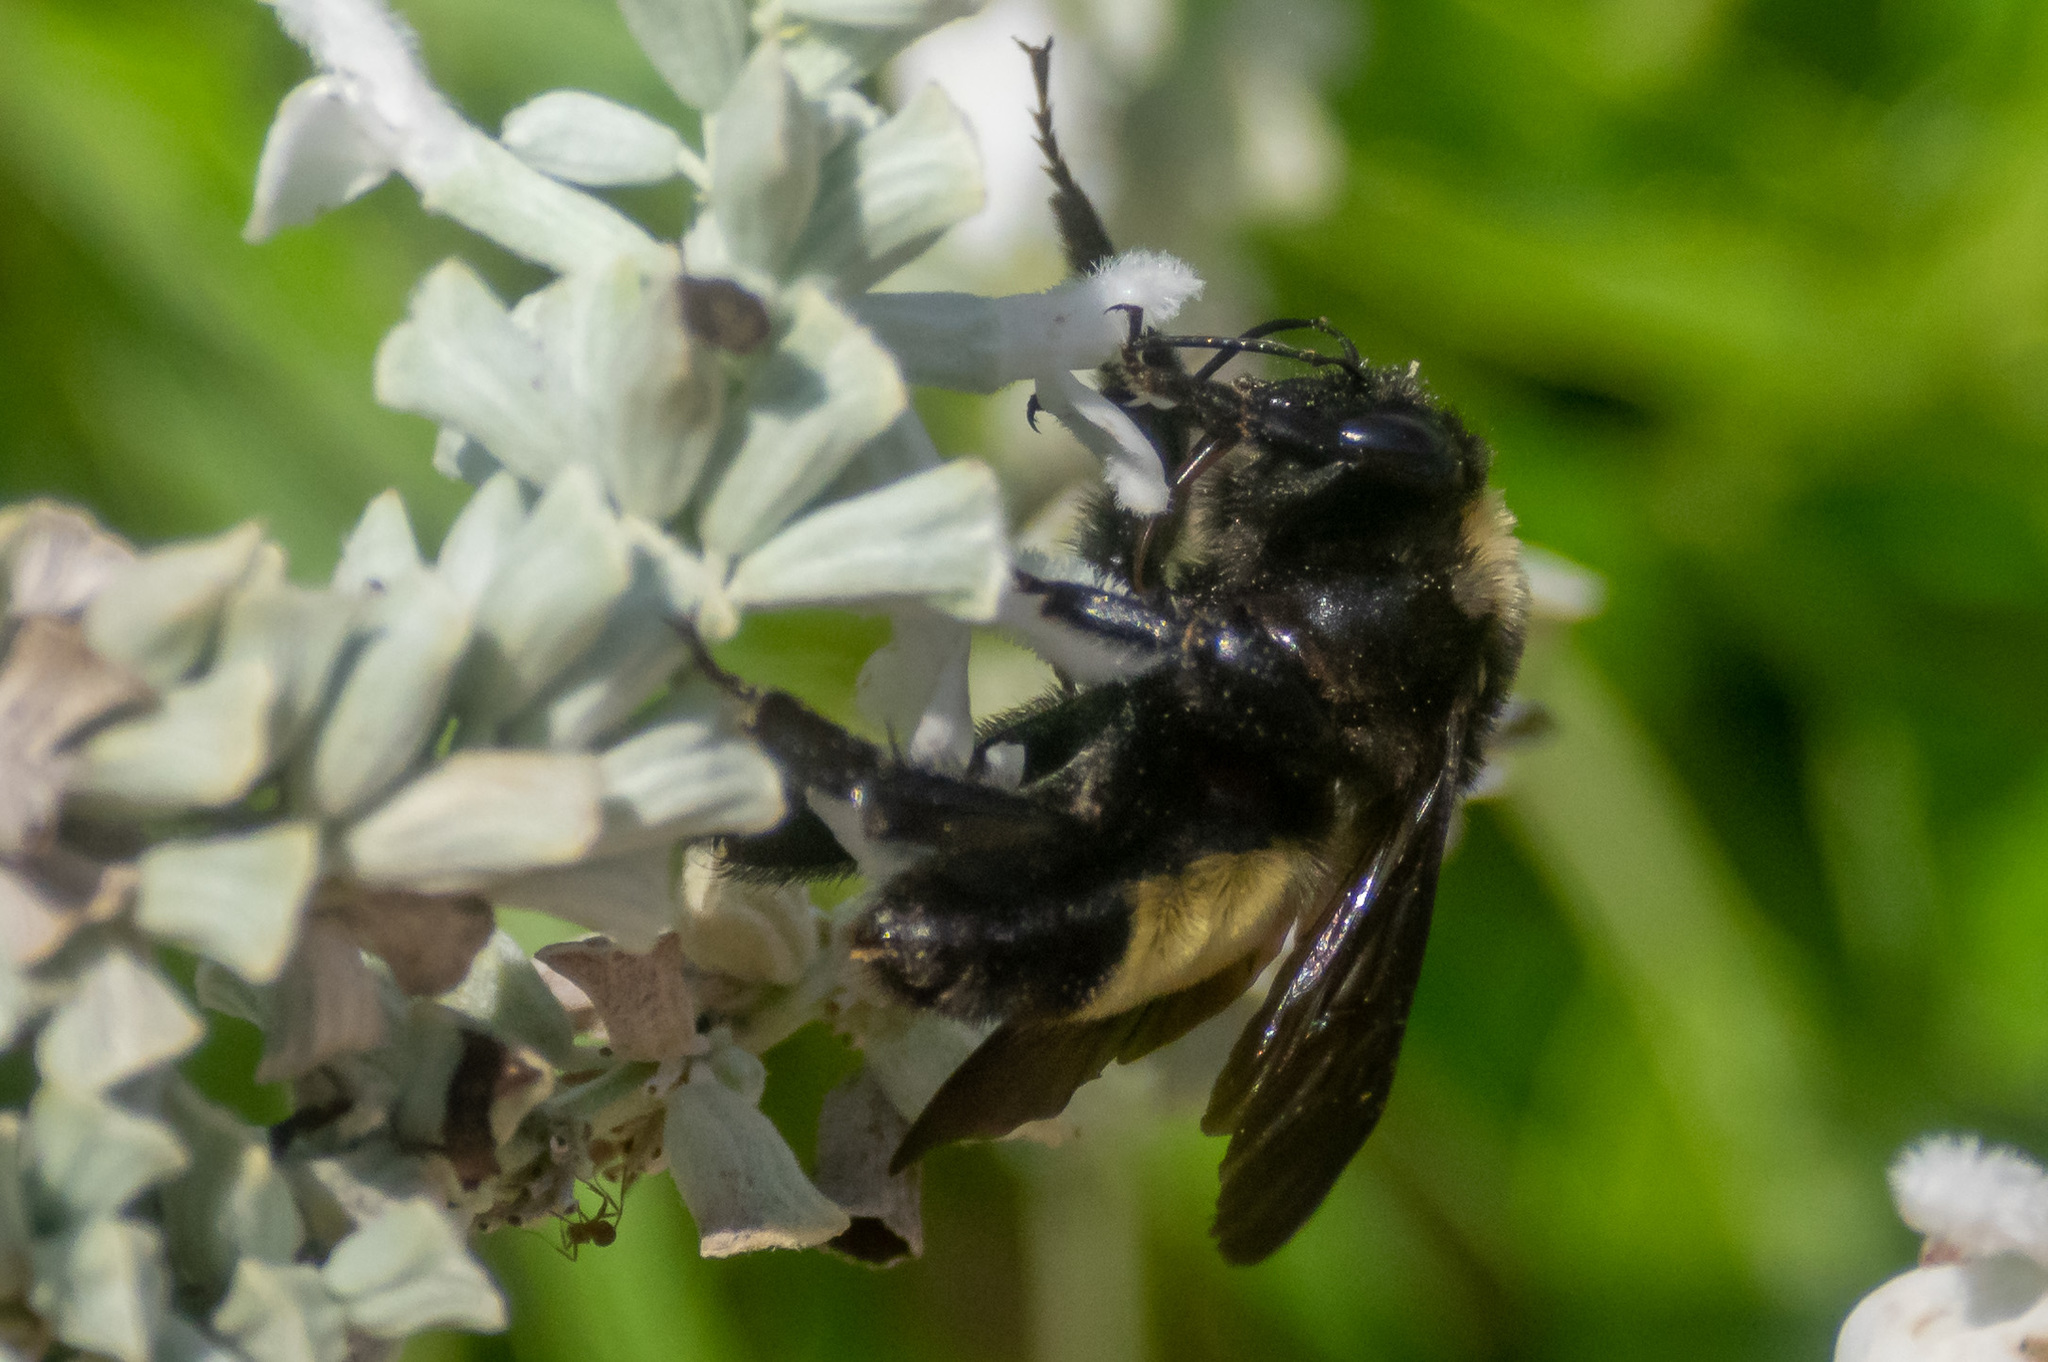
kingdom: Animalia
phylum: Arthropoda
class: Insecta
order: Hymenoptera
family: Apidae
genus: Bombus
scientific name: Bombus pensylvanicus
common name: Bumble bee
